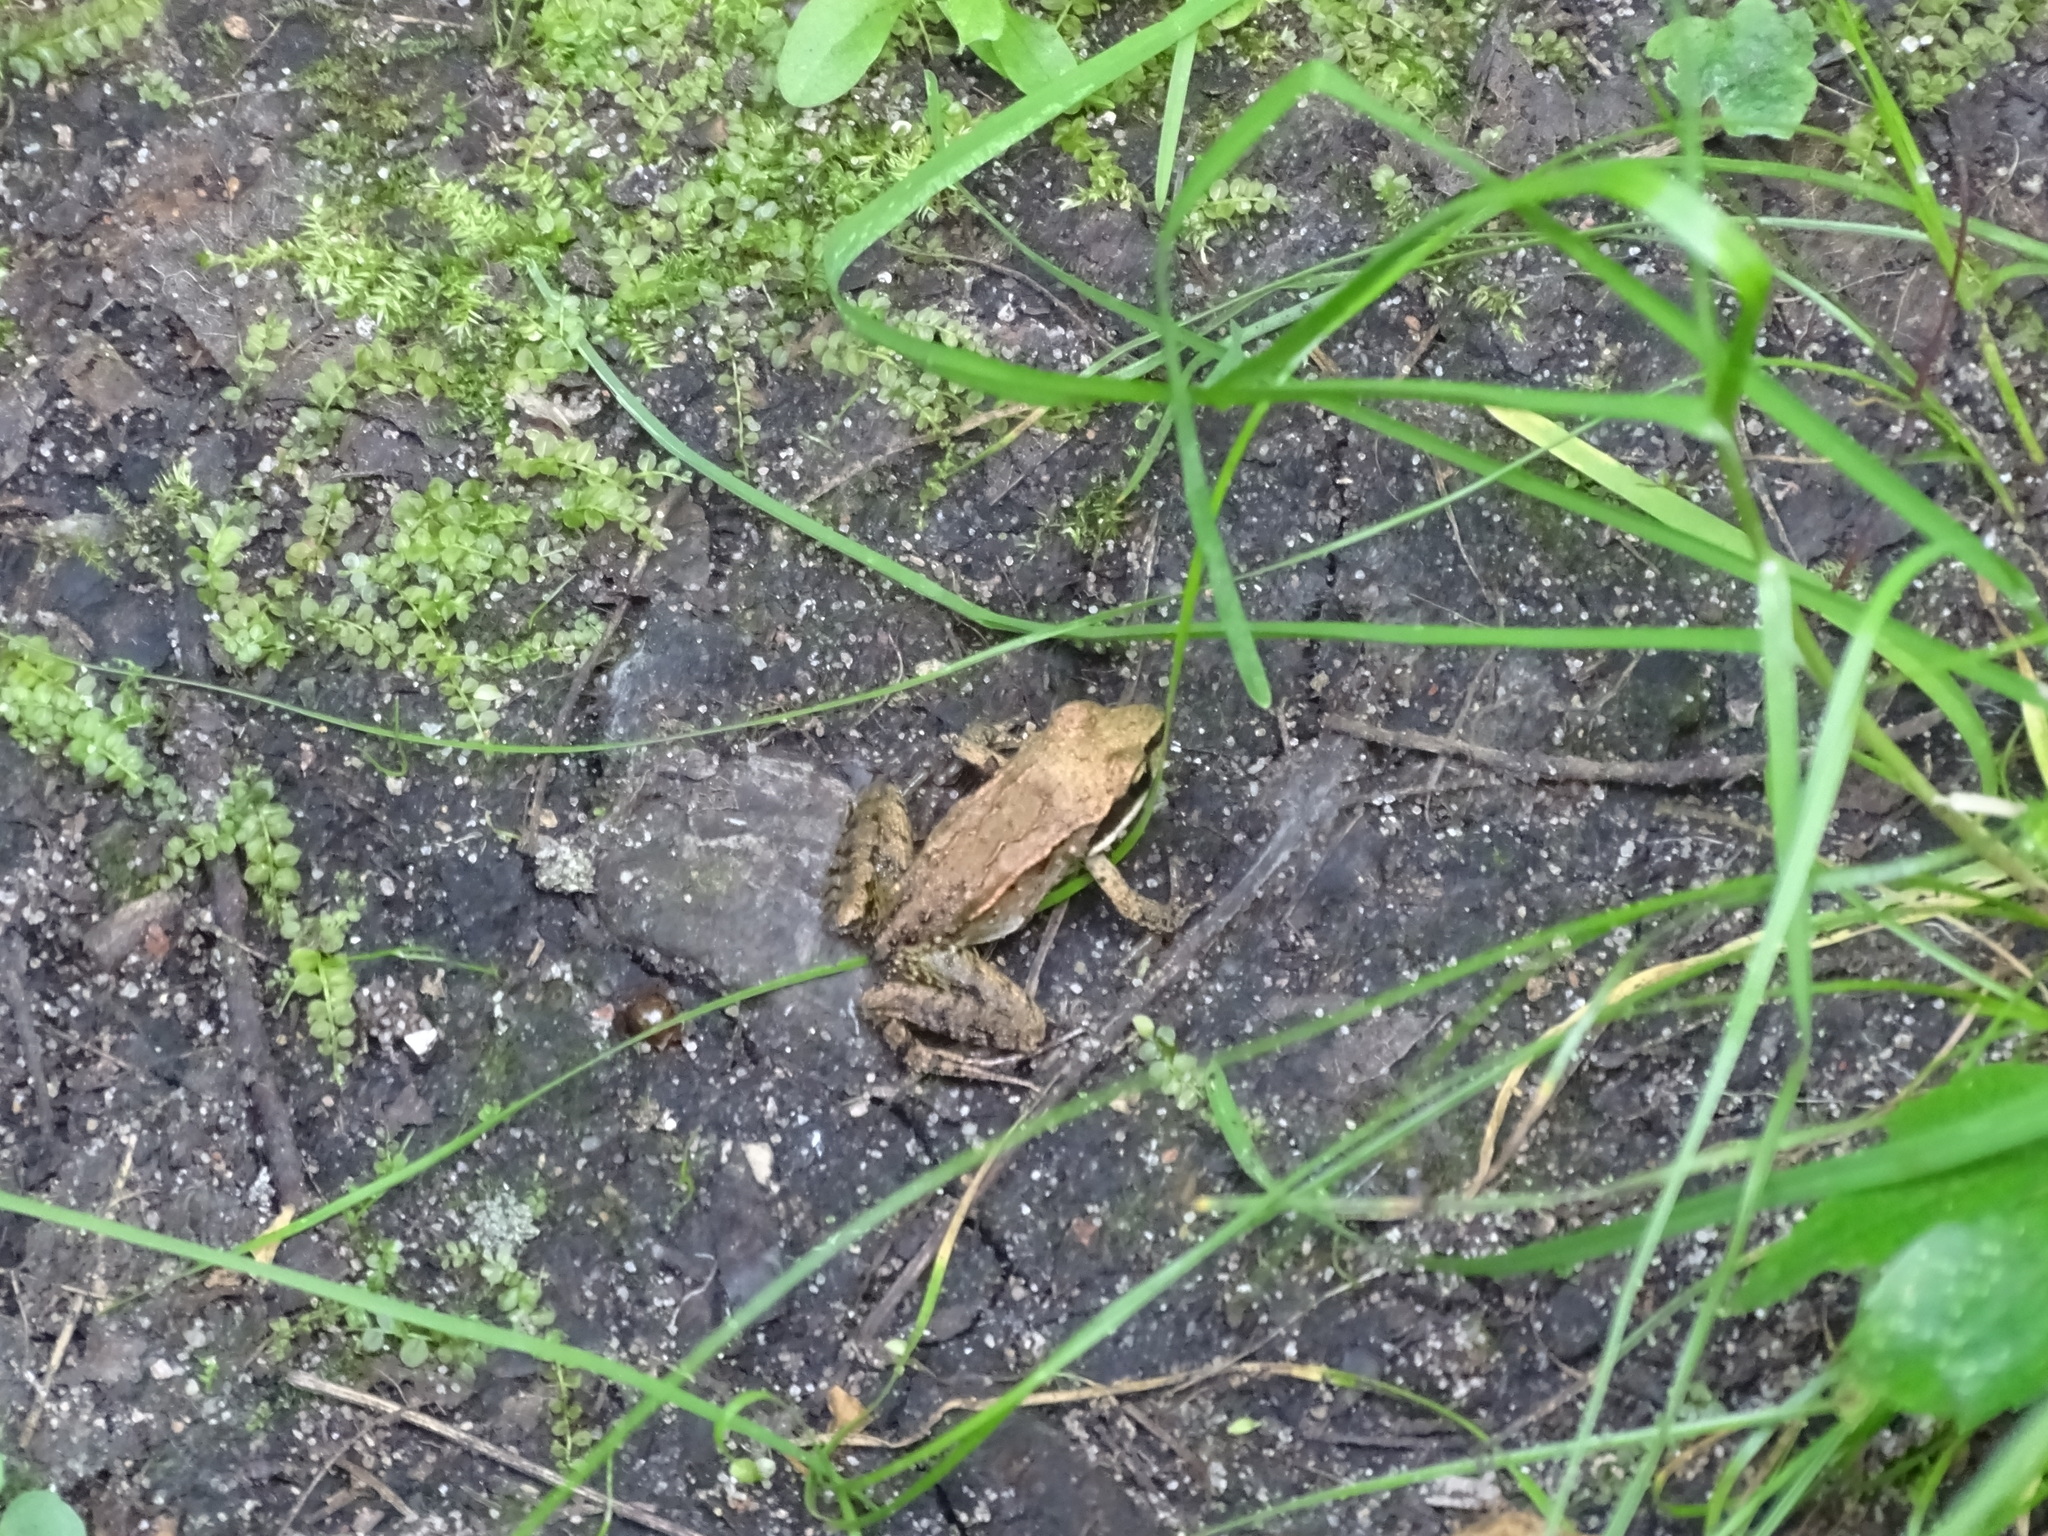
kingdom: Animalia
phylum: Chordata
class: Amphibia
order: Anura
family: Ranidae
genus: Lithobates
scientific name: Lithobates sylvaticus
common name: Wood frog
